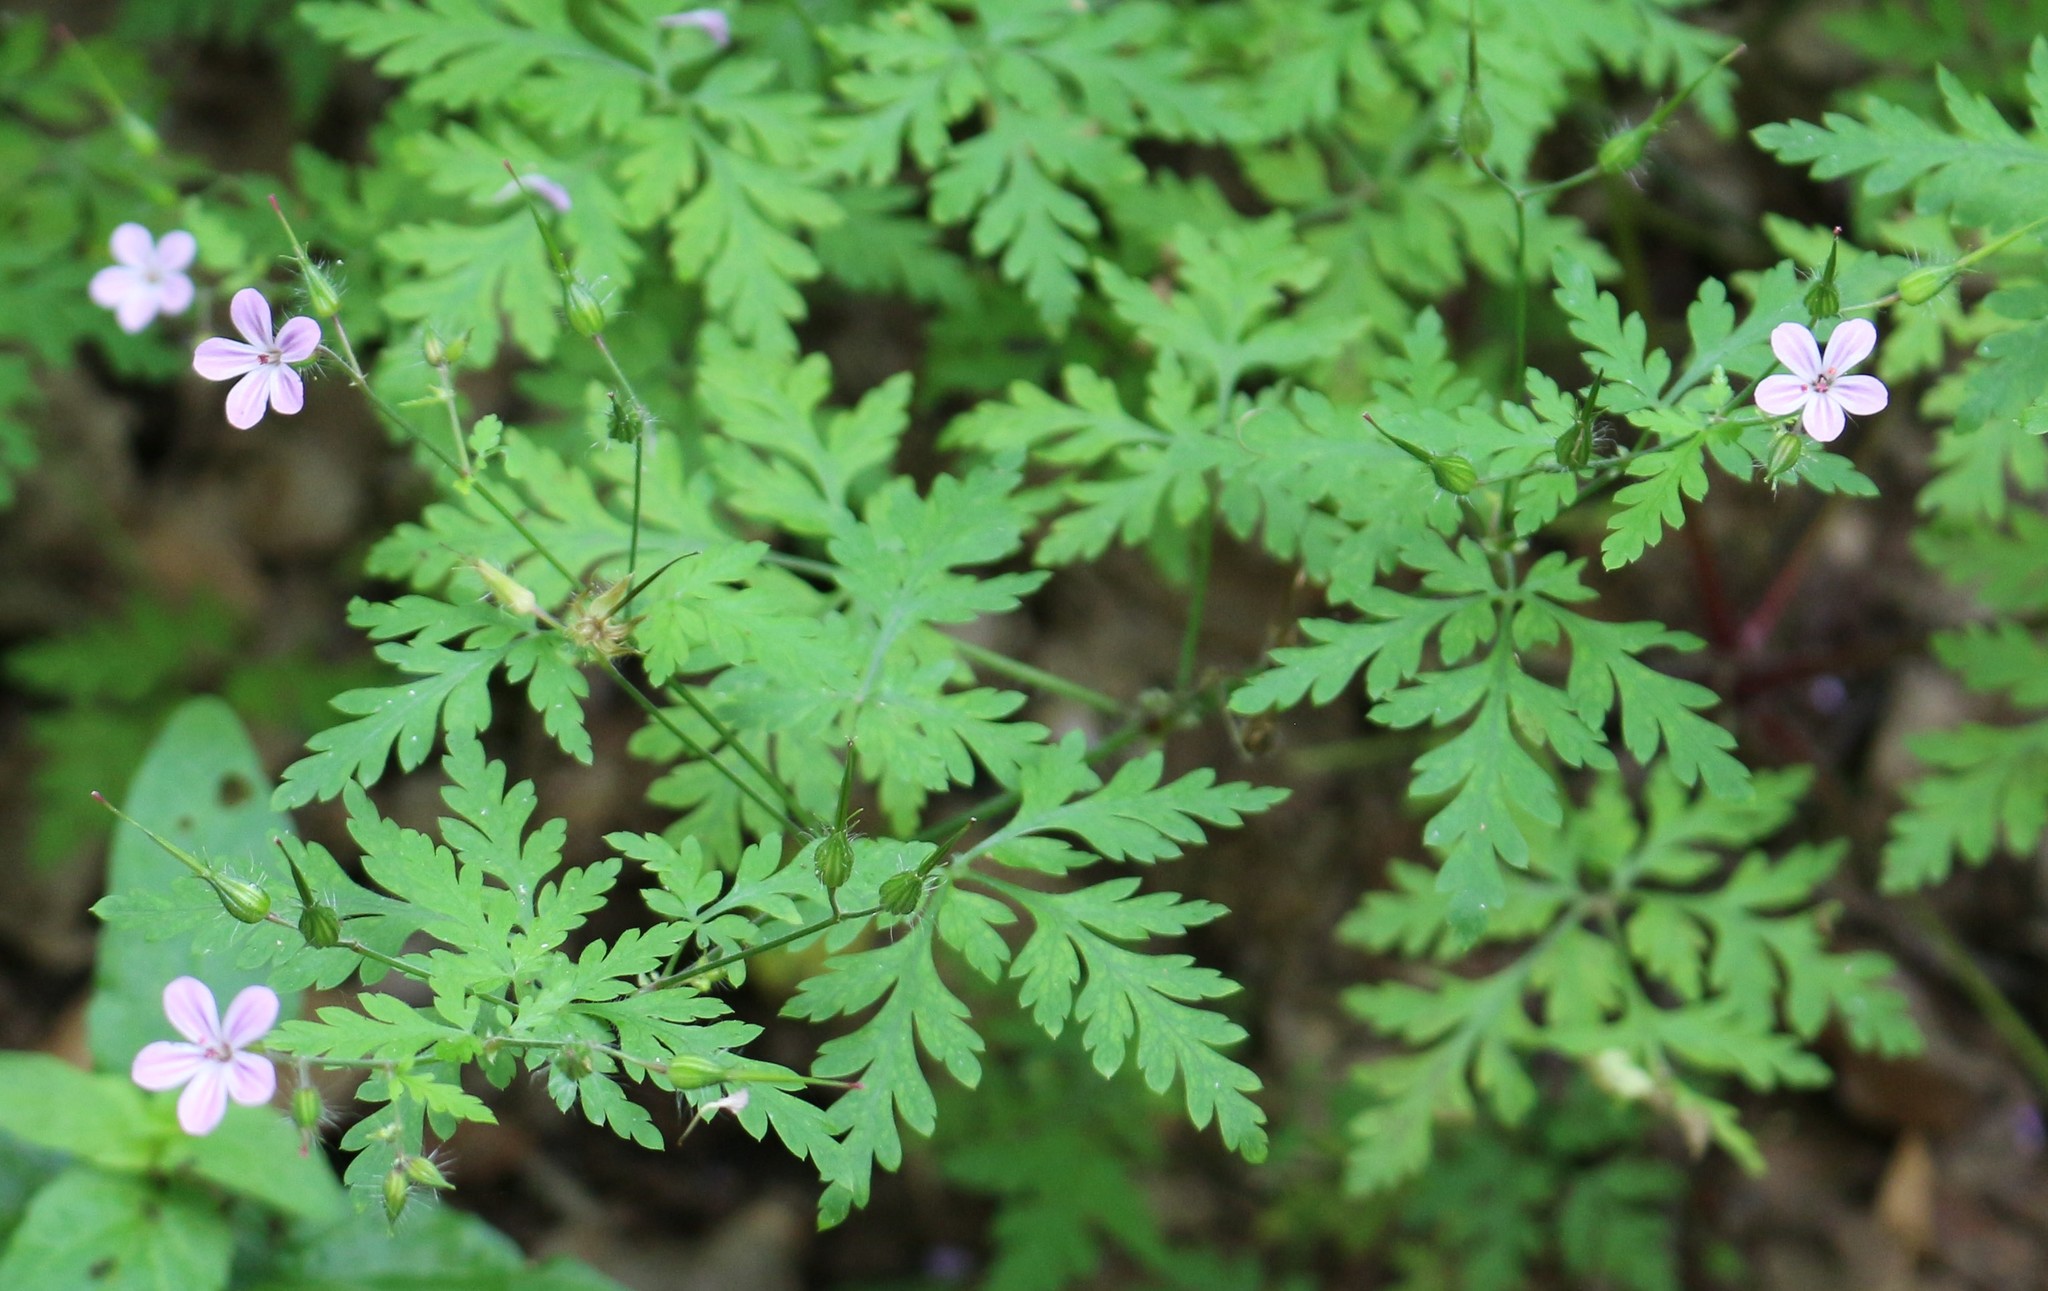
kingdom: Plantae
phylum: Tracheophyta
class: Magnoliopsida
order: Geraniales
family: Geraniaceae
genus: Geranium
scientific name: Geranium robertianum
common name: Herb-robert
